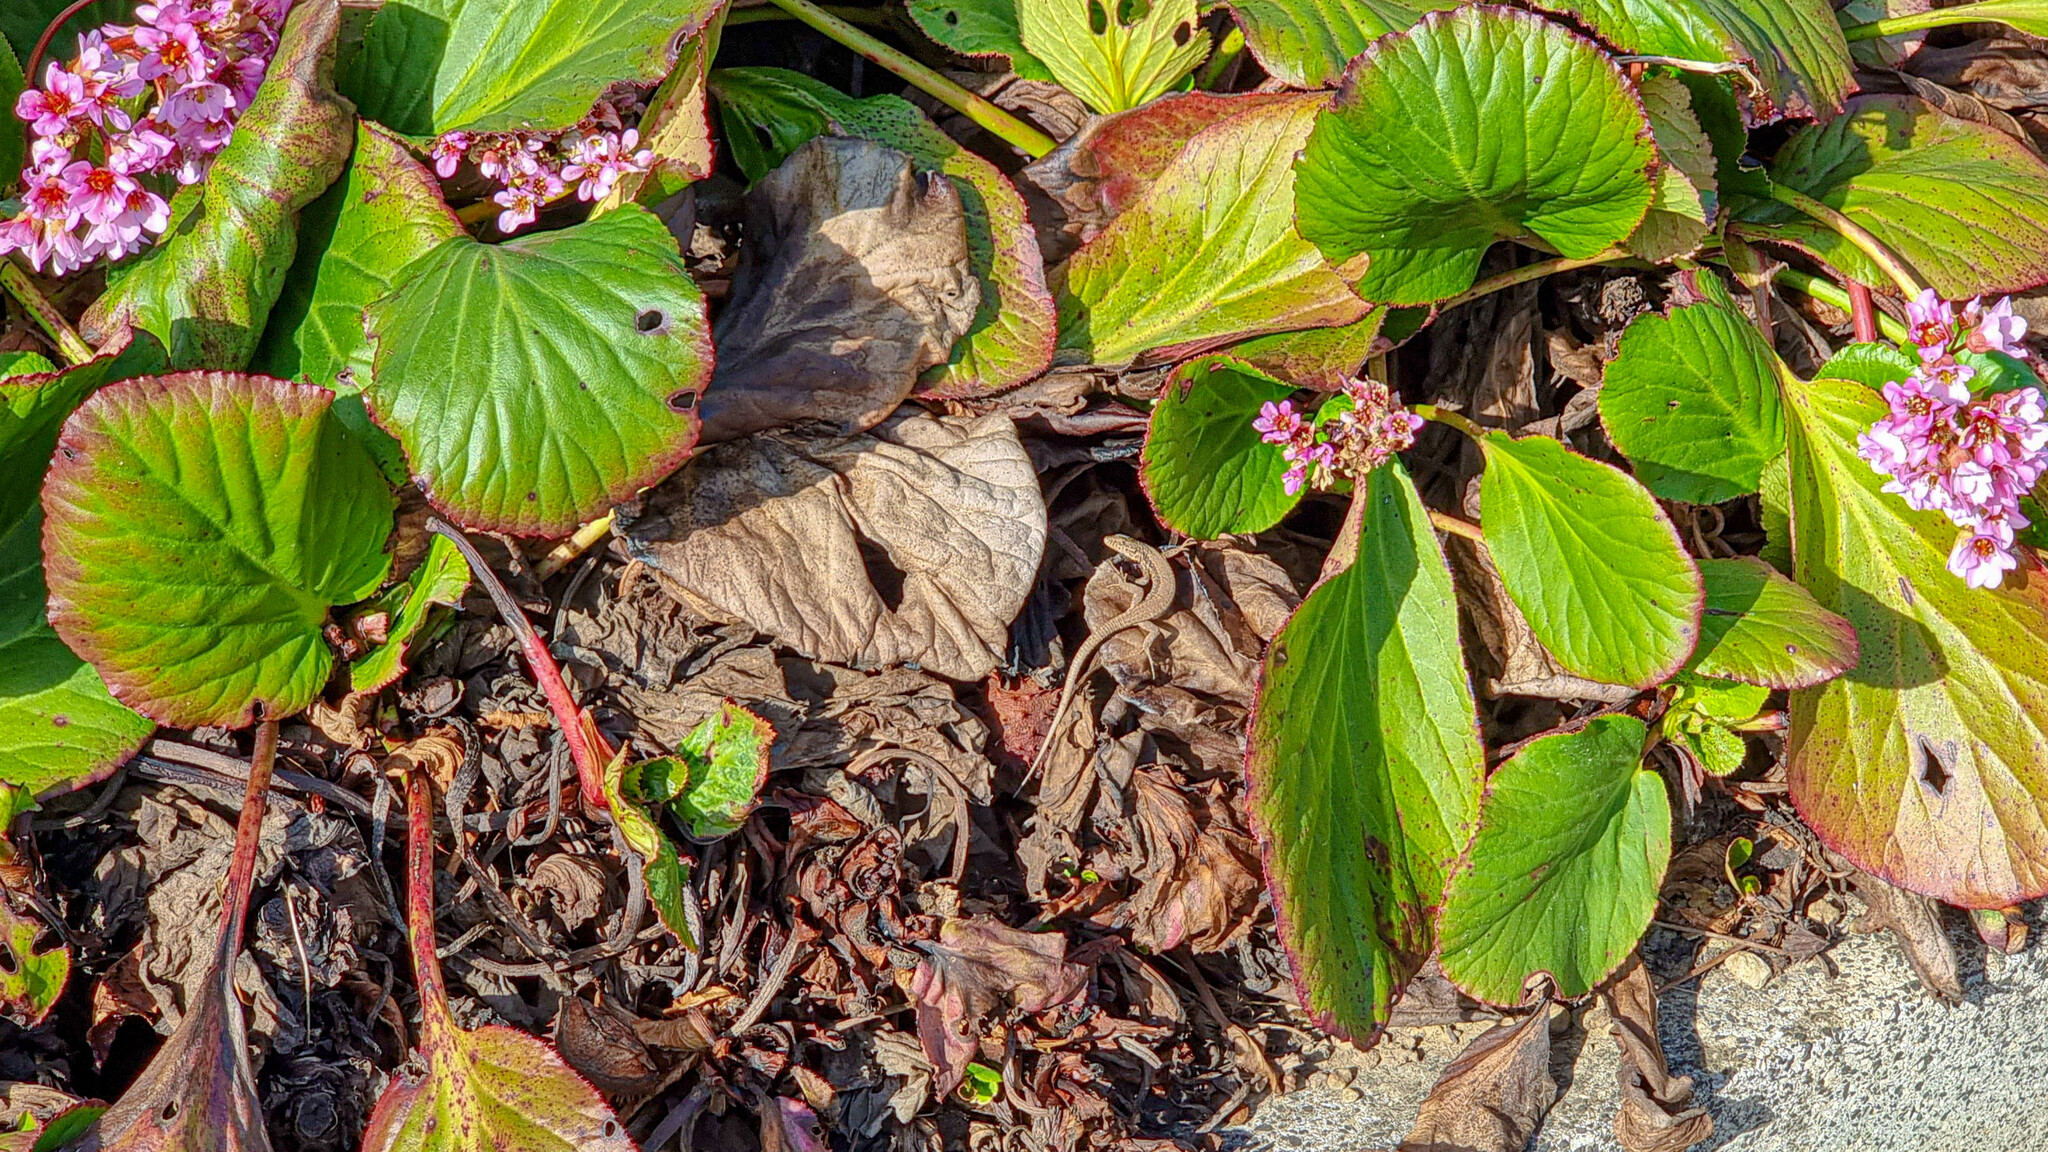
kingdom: Plantae
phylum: Tracheophyta
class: Magnoliopsida
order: Saxifragales
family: Saxifragaceae
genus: Bergenia
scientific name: Bergenia crassifolia
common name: Elephant-ears
